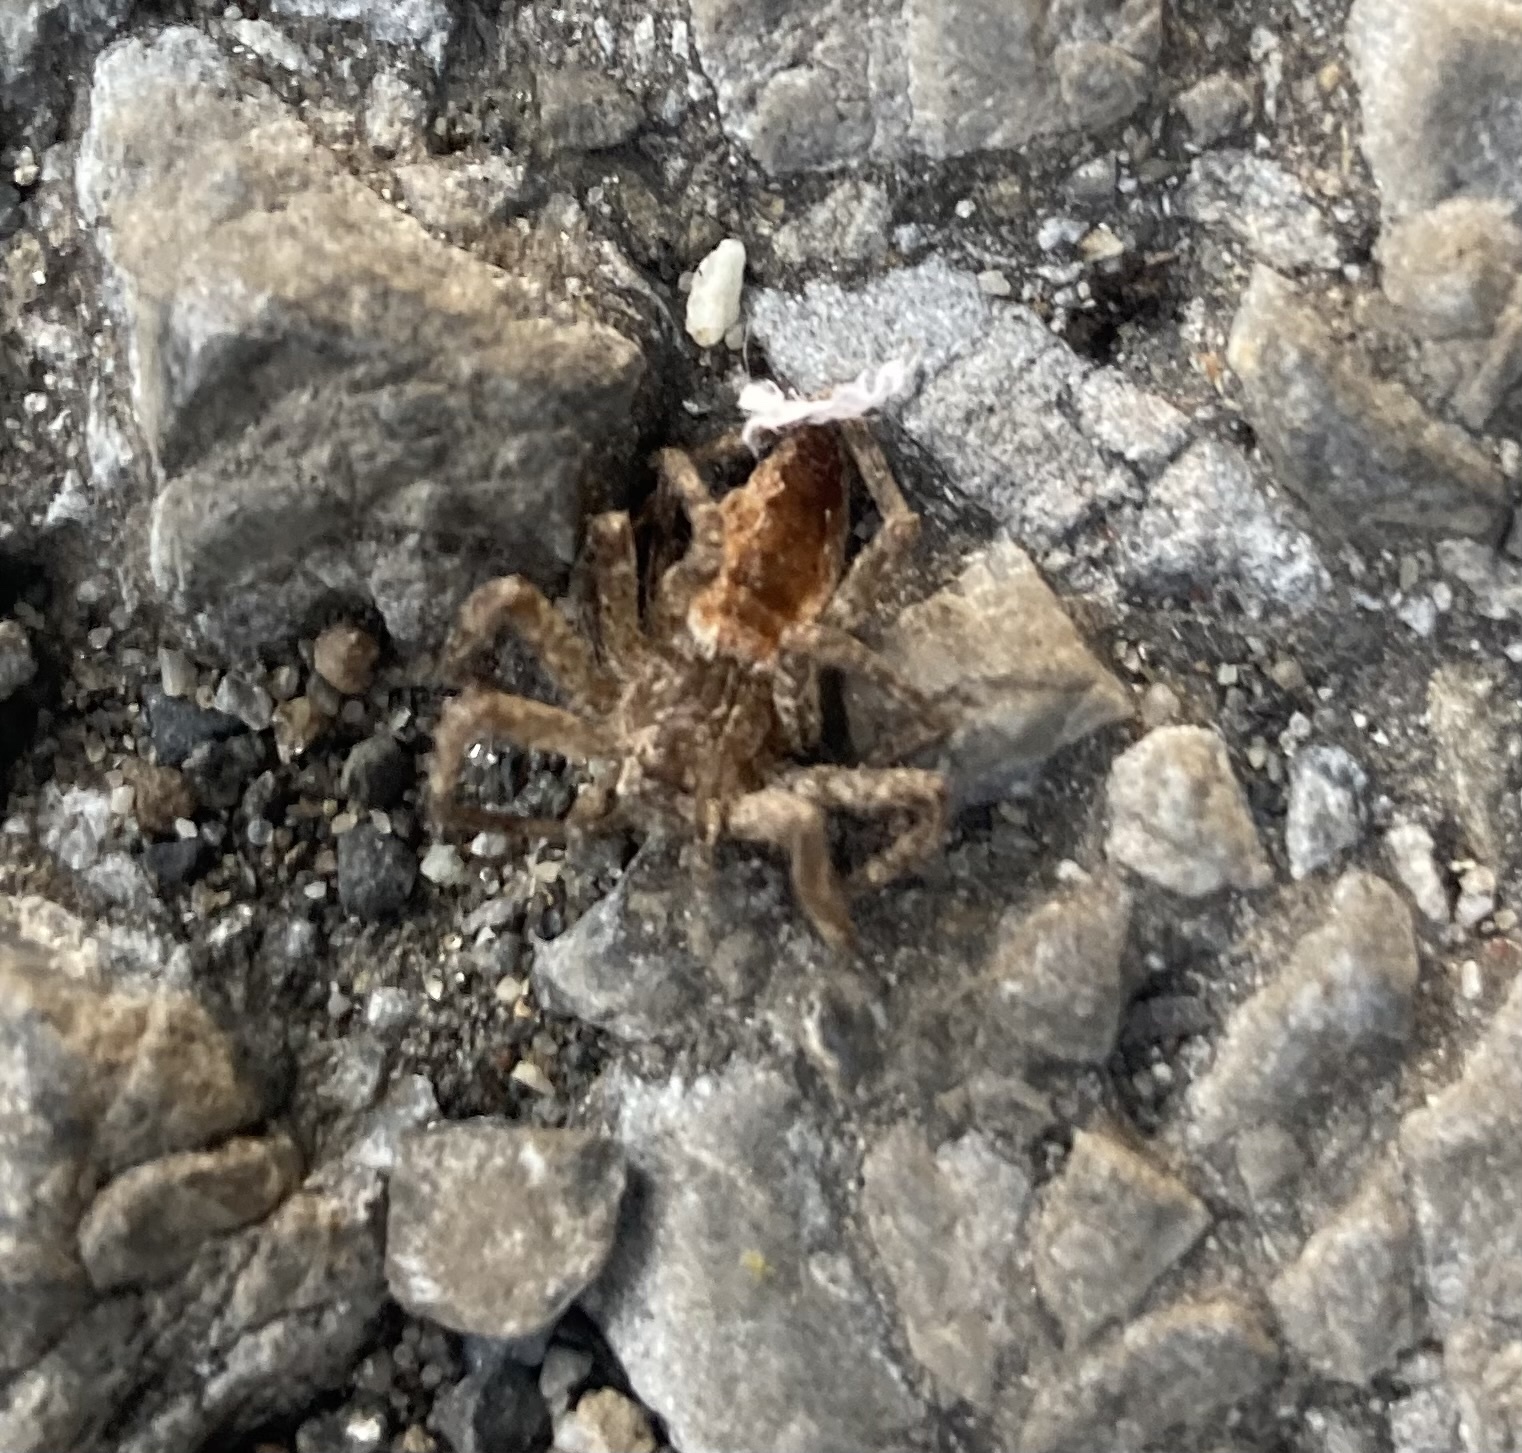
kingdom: Animalia
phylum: Arthropoda
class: Arachnida
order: Araneae
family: Pisauridae
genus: Pisaurina
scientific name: Pisaurina mira
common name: American nursery web spider
